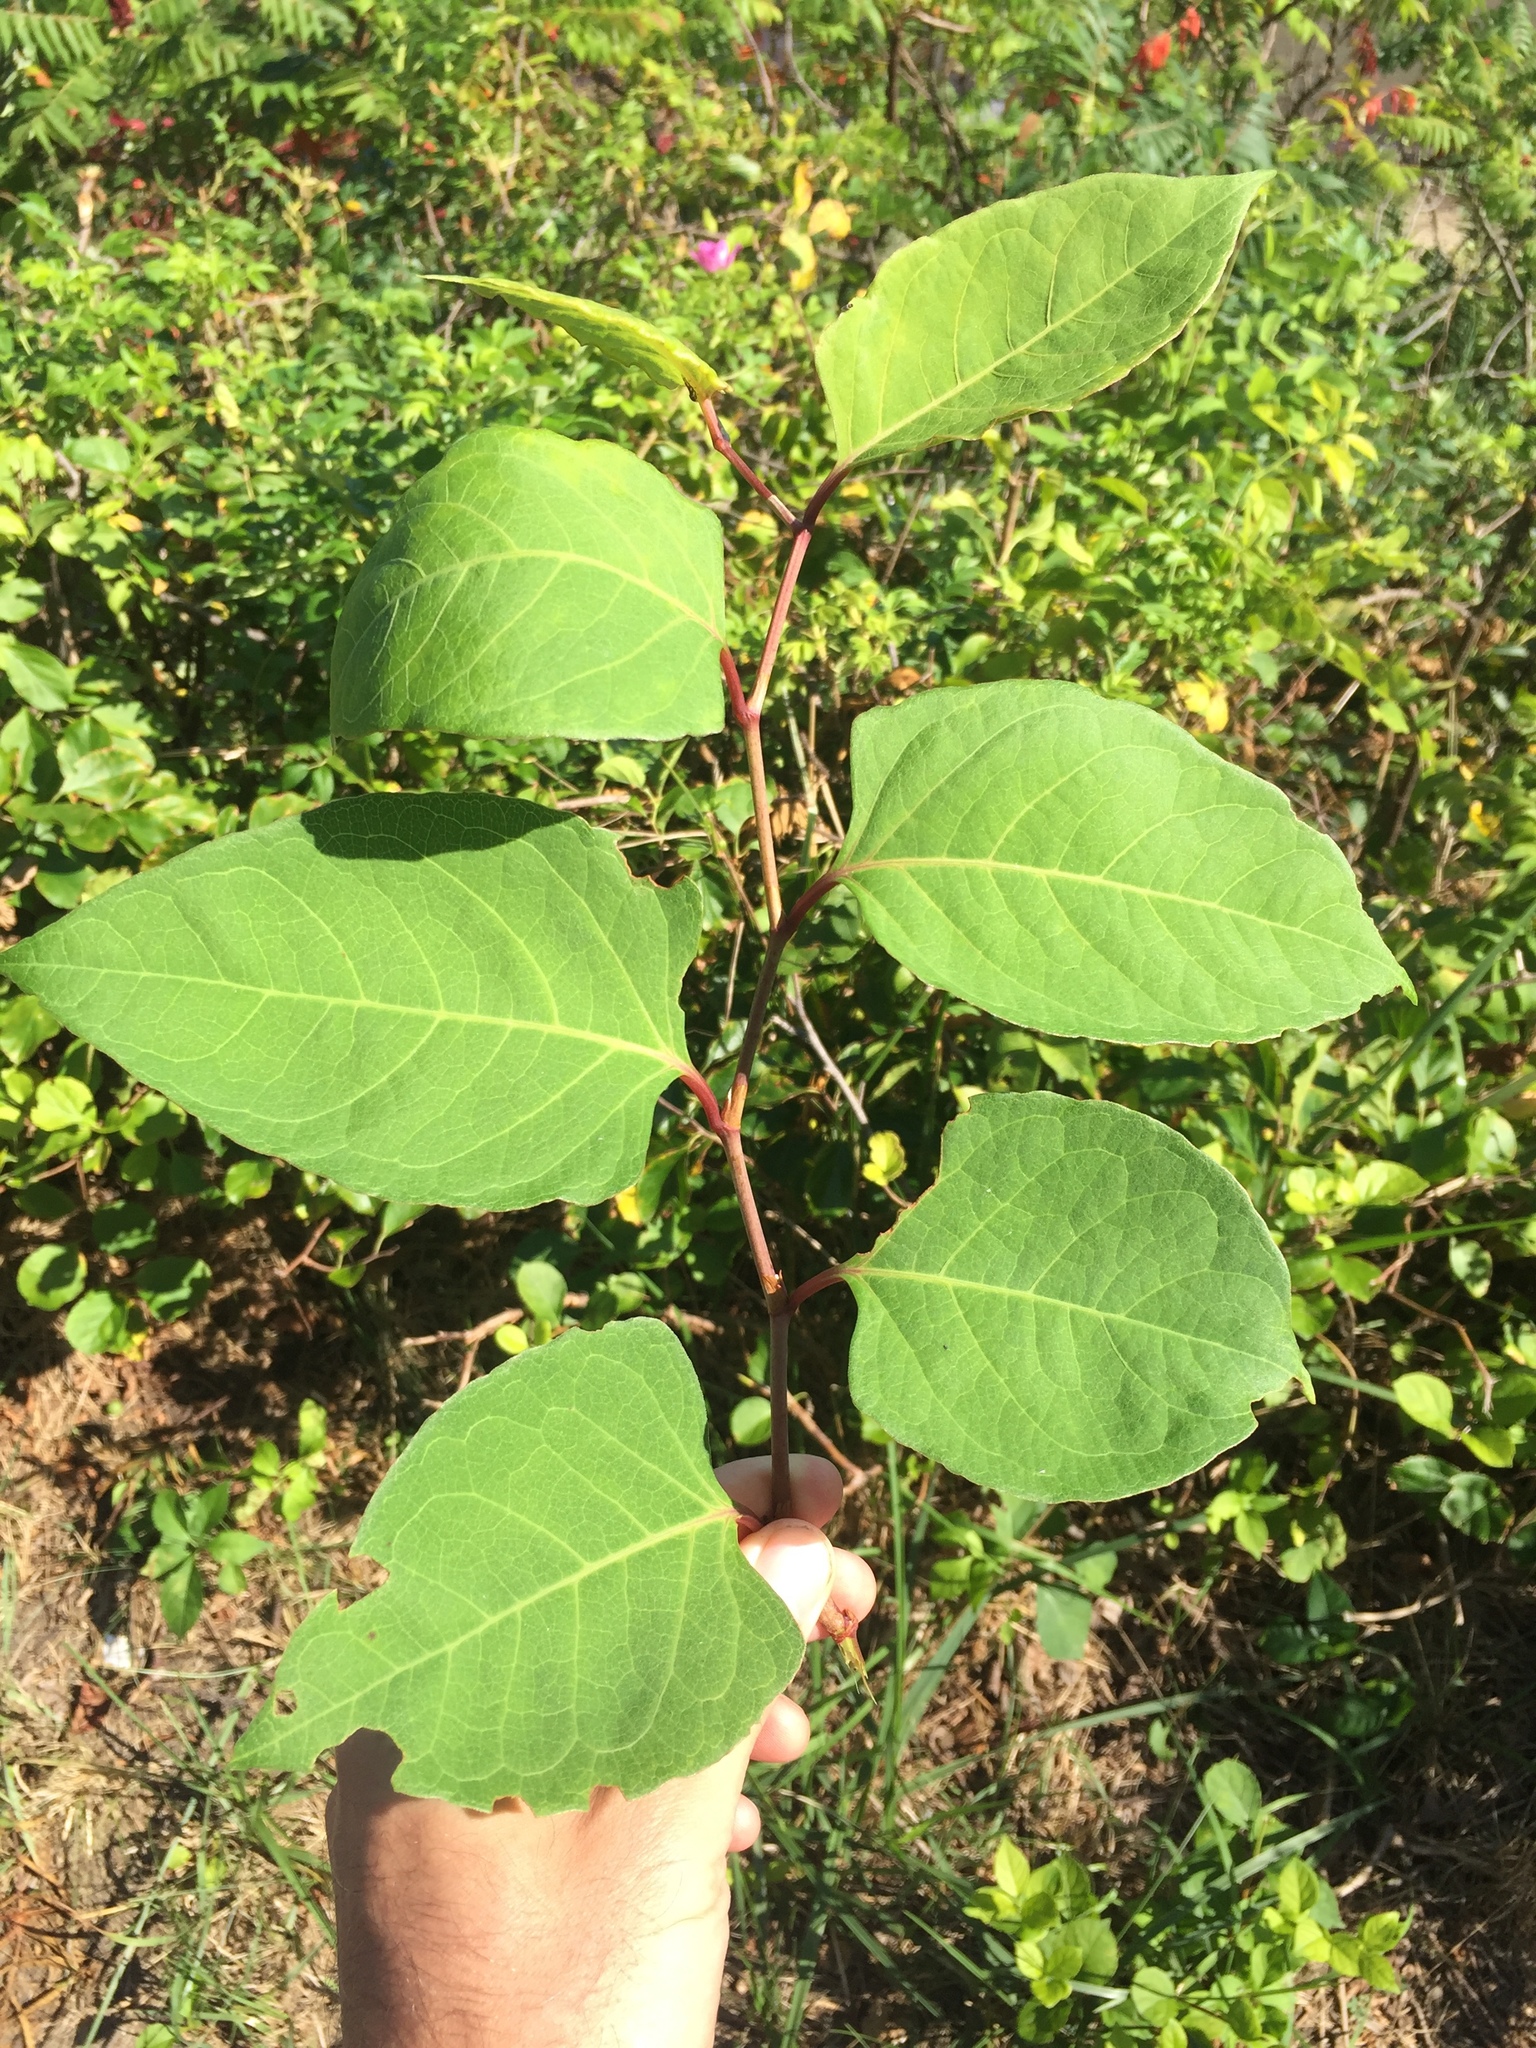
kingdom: Plantae
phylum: Tracheophyta
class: Magnoliopsida
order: Caryophyllales
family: Polygonaceae
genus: Reynoutria
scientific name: Reynoutria japonica
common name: Japanese knotweed
